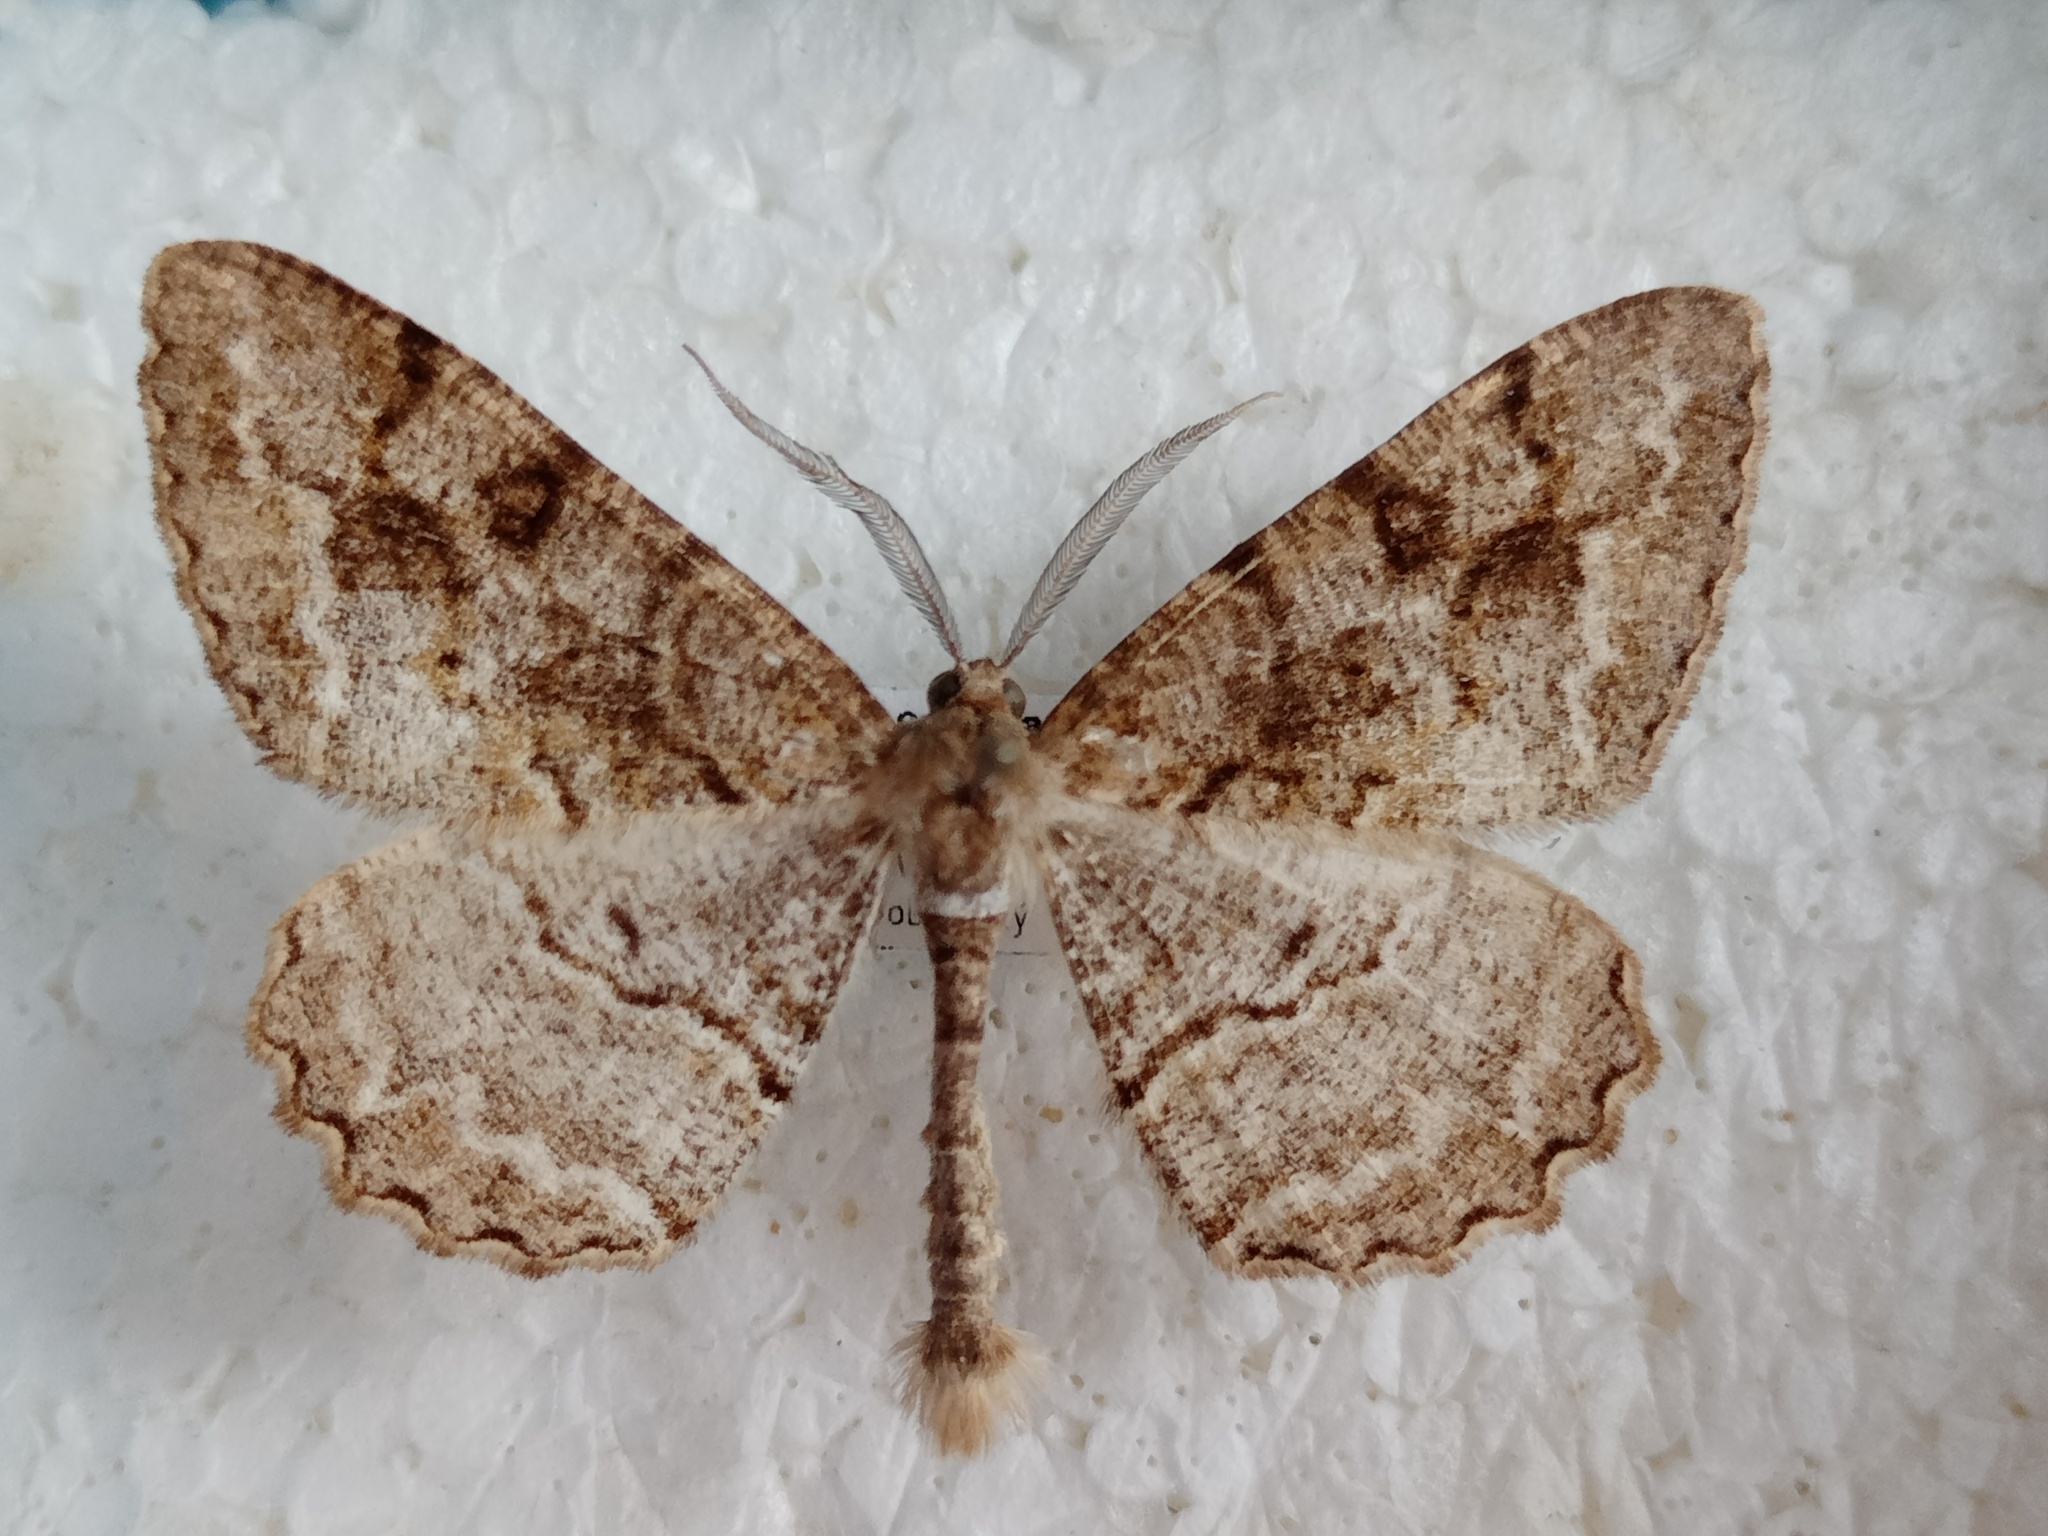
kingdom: Animalia
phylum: Arthropoda
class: Insecta
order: Lepidoptera
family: Geometridae
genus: Alcis
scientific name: Alcis repandata
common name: Mottled beauty
